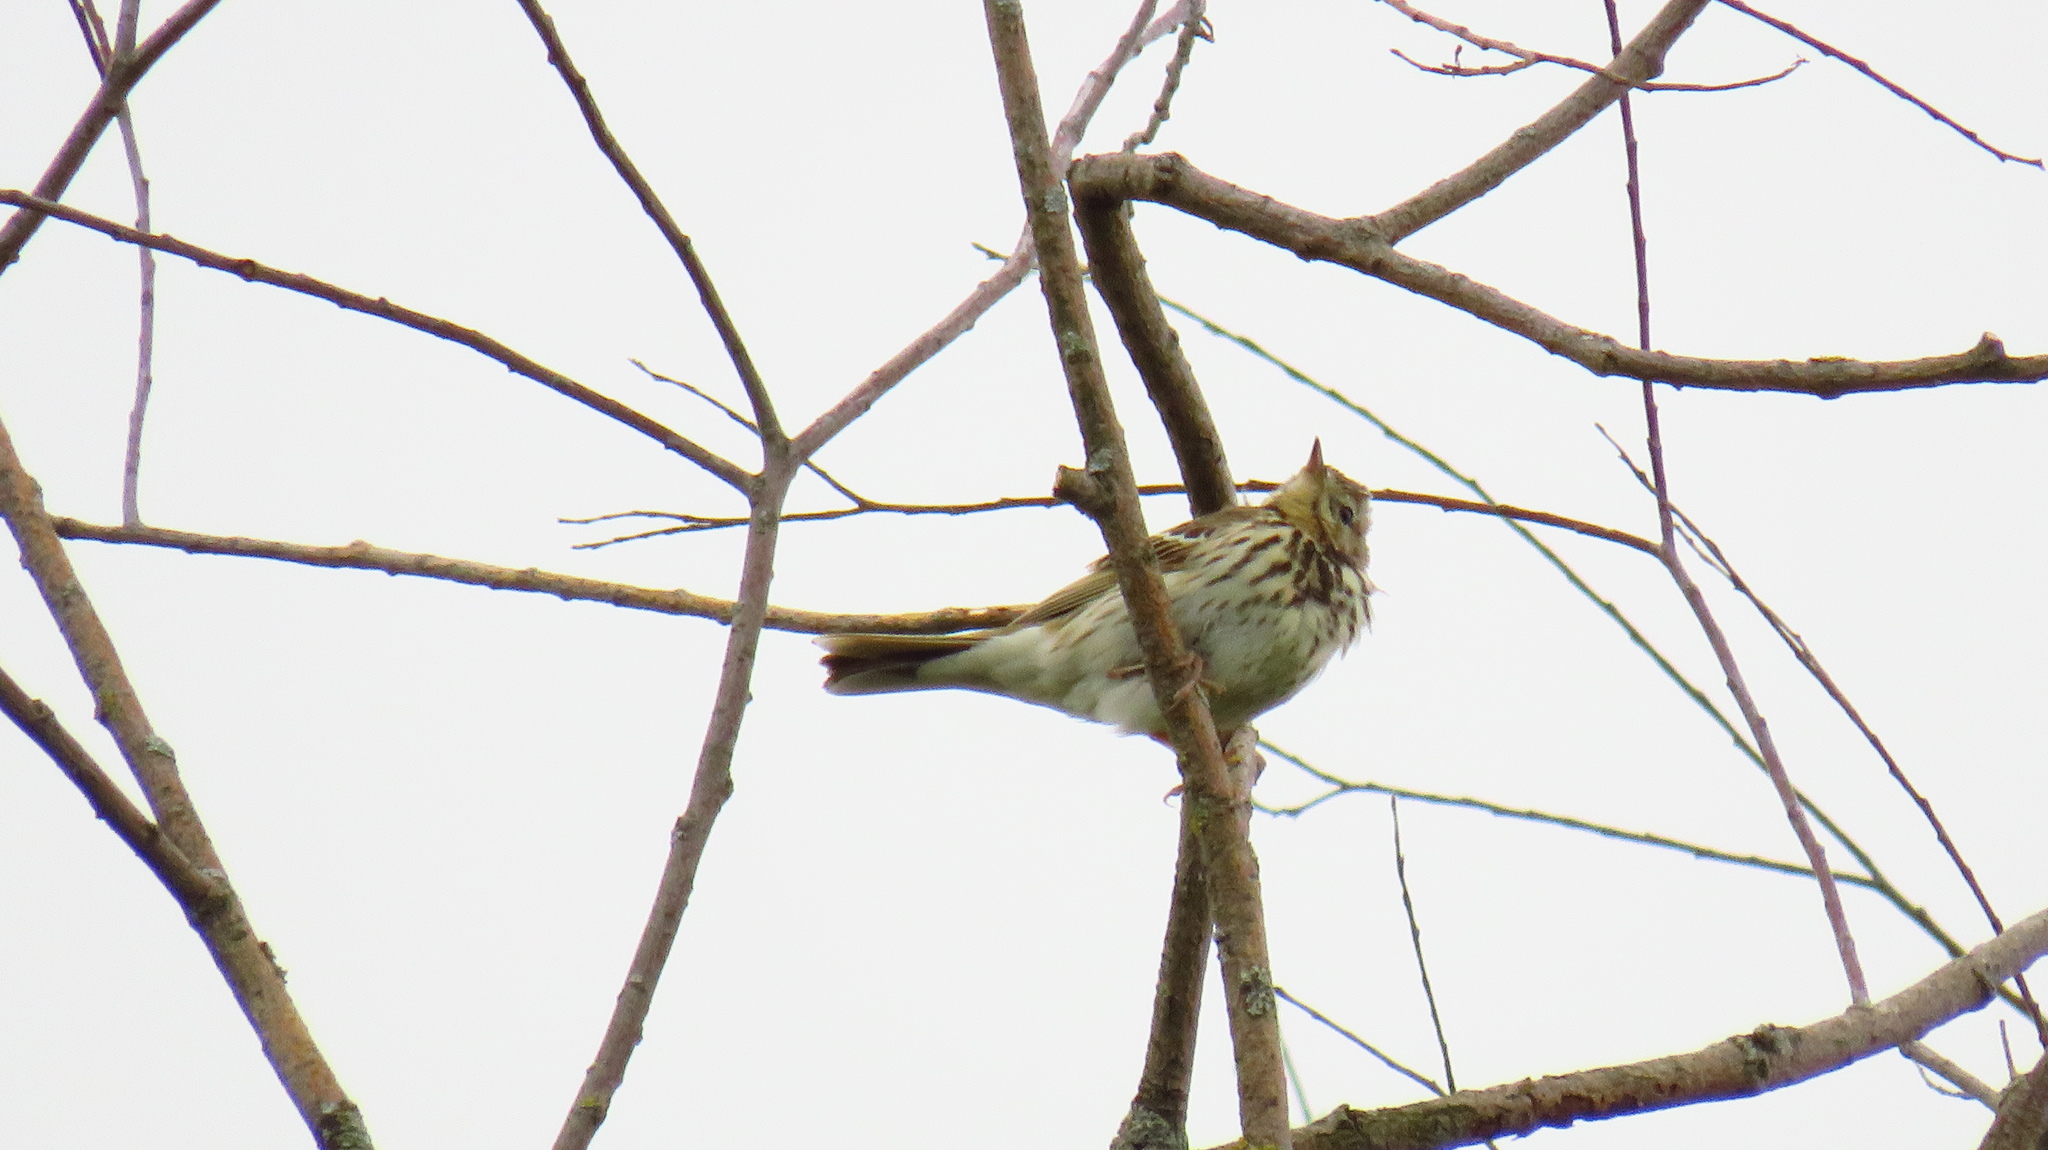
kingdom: Animalia
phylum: Chordata
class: Aves
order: Passeriformes
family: Motacillidae
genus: Anthus
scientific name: Anthus trivialis
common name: Tree pipit
